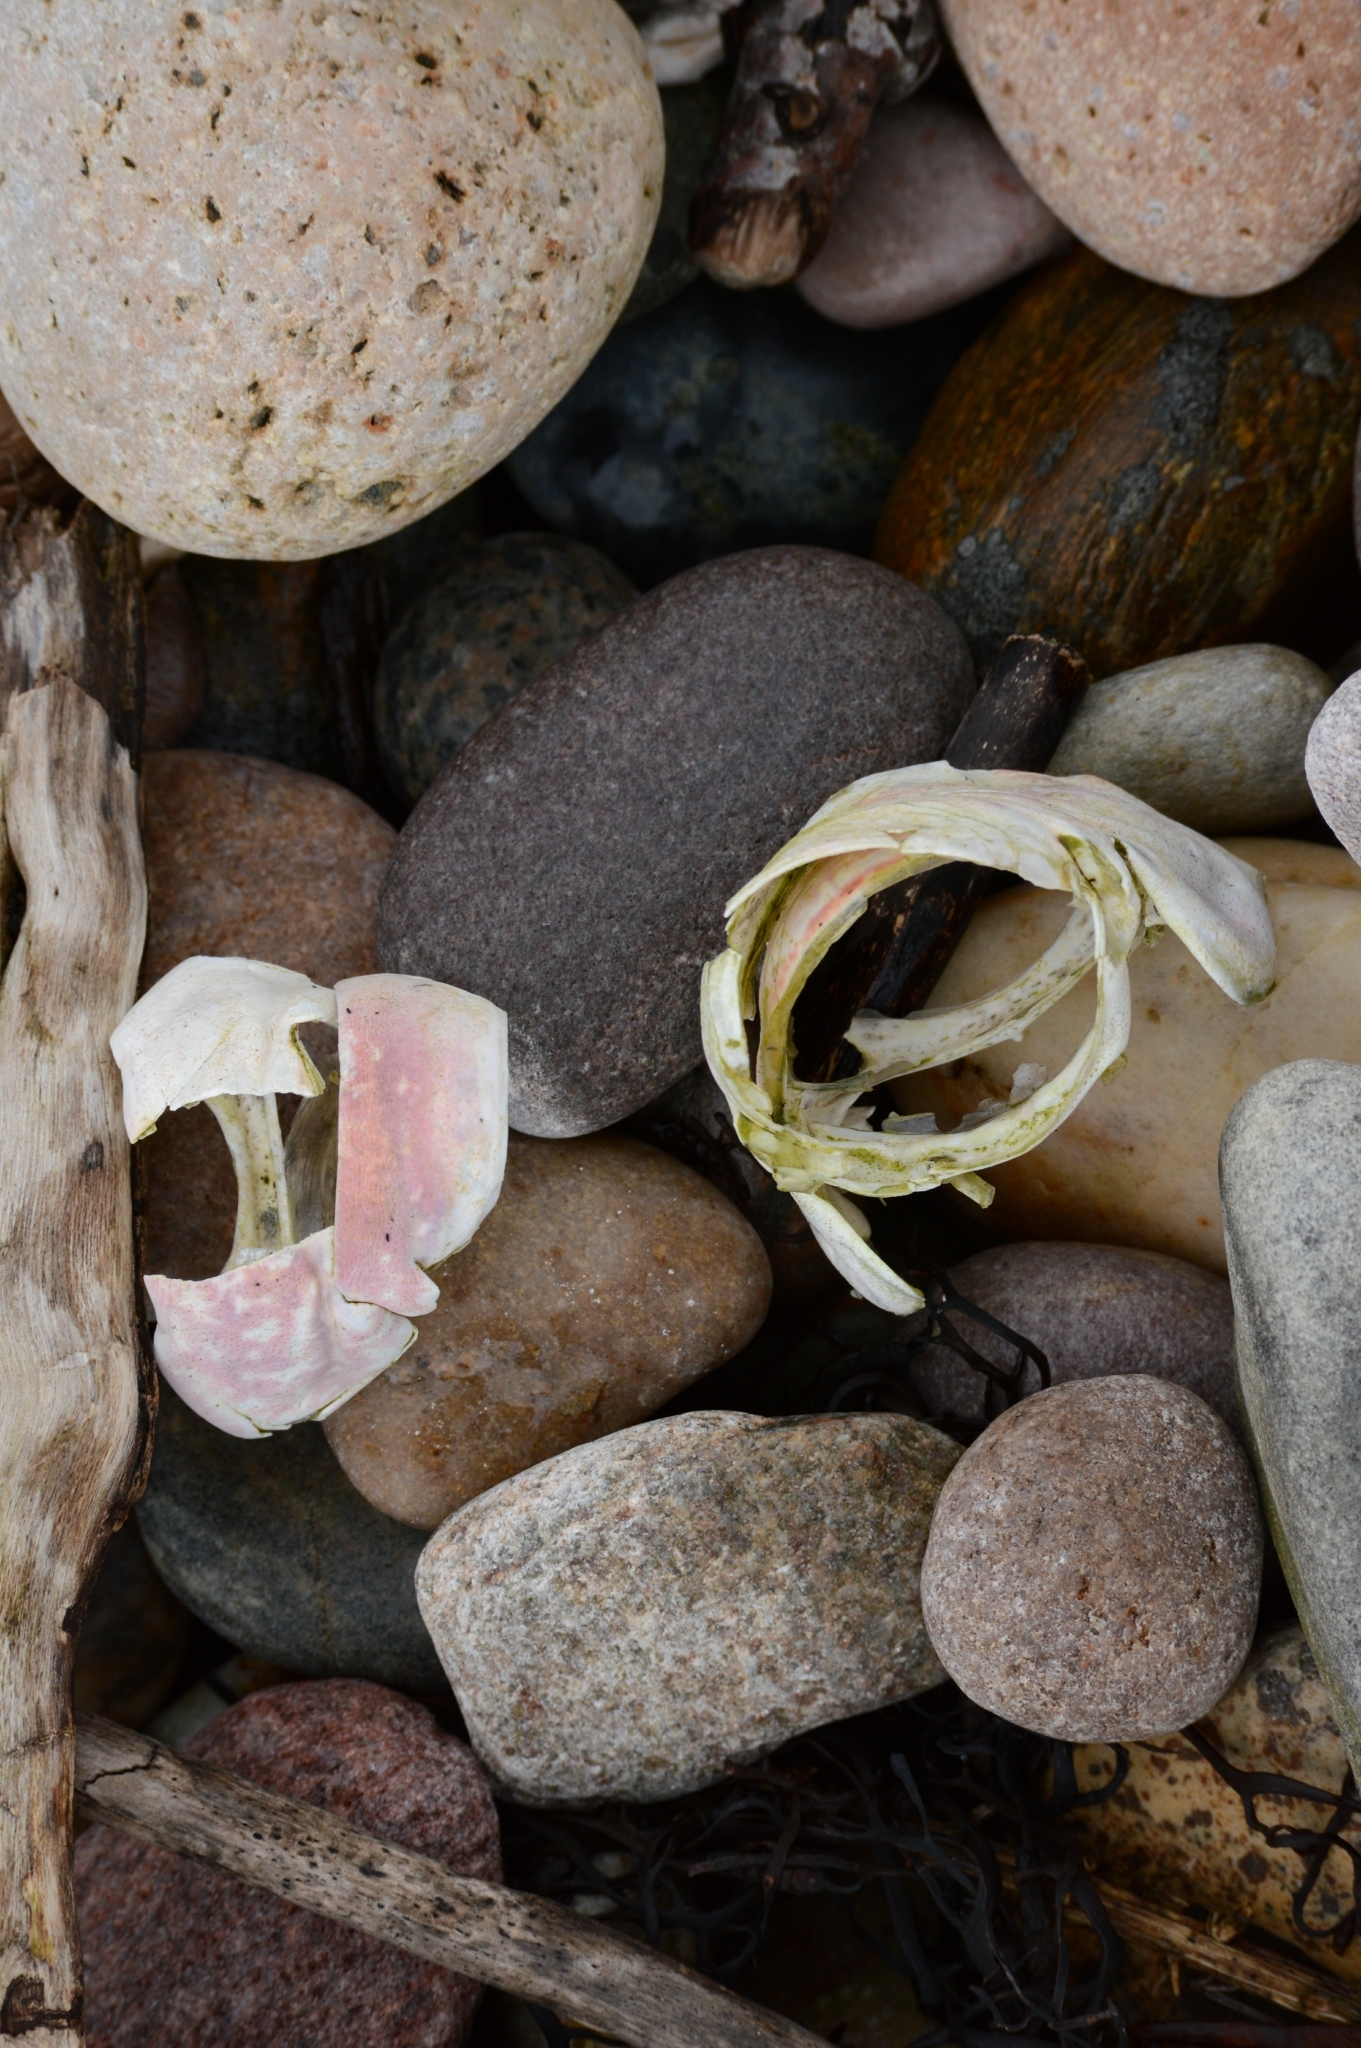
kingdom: Animalia
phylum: Arthropoda
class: Malacostraca
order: Decapoda
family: Nephropidae
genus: Homarus
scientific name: Homarus gammarus
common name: European lobster
